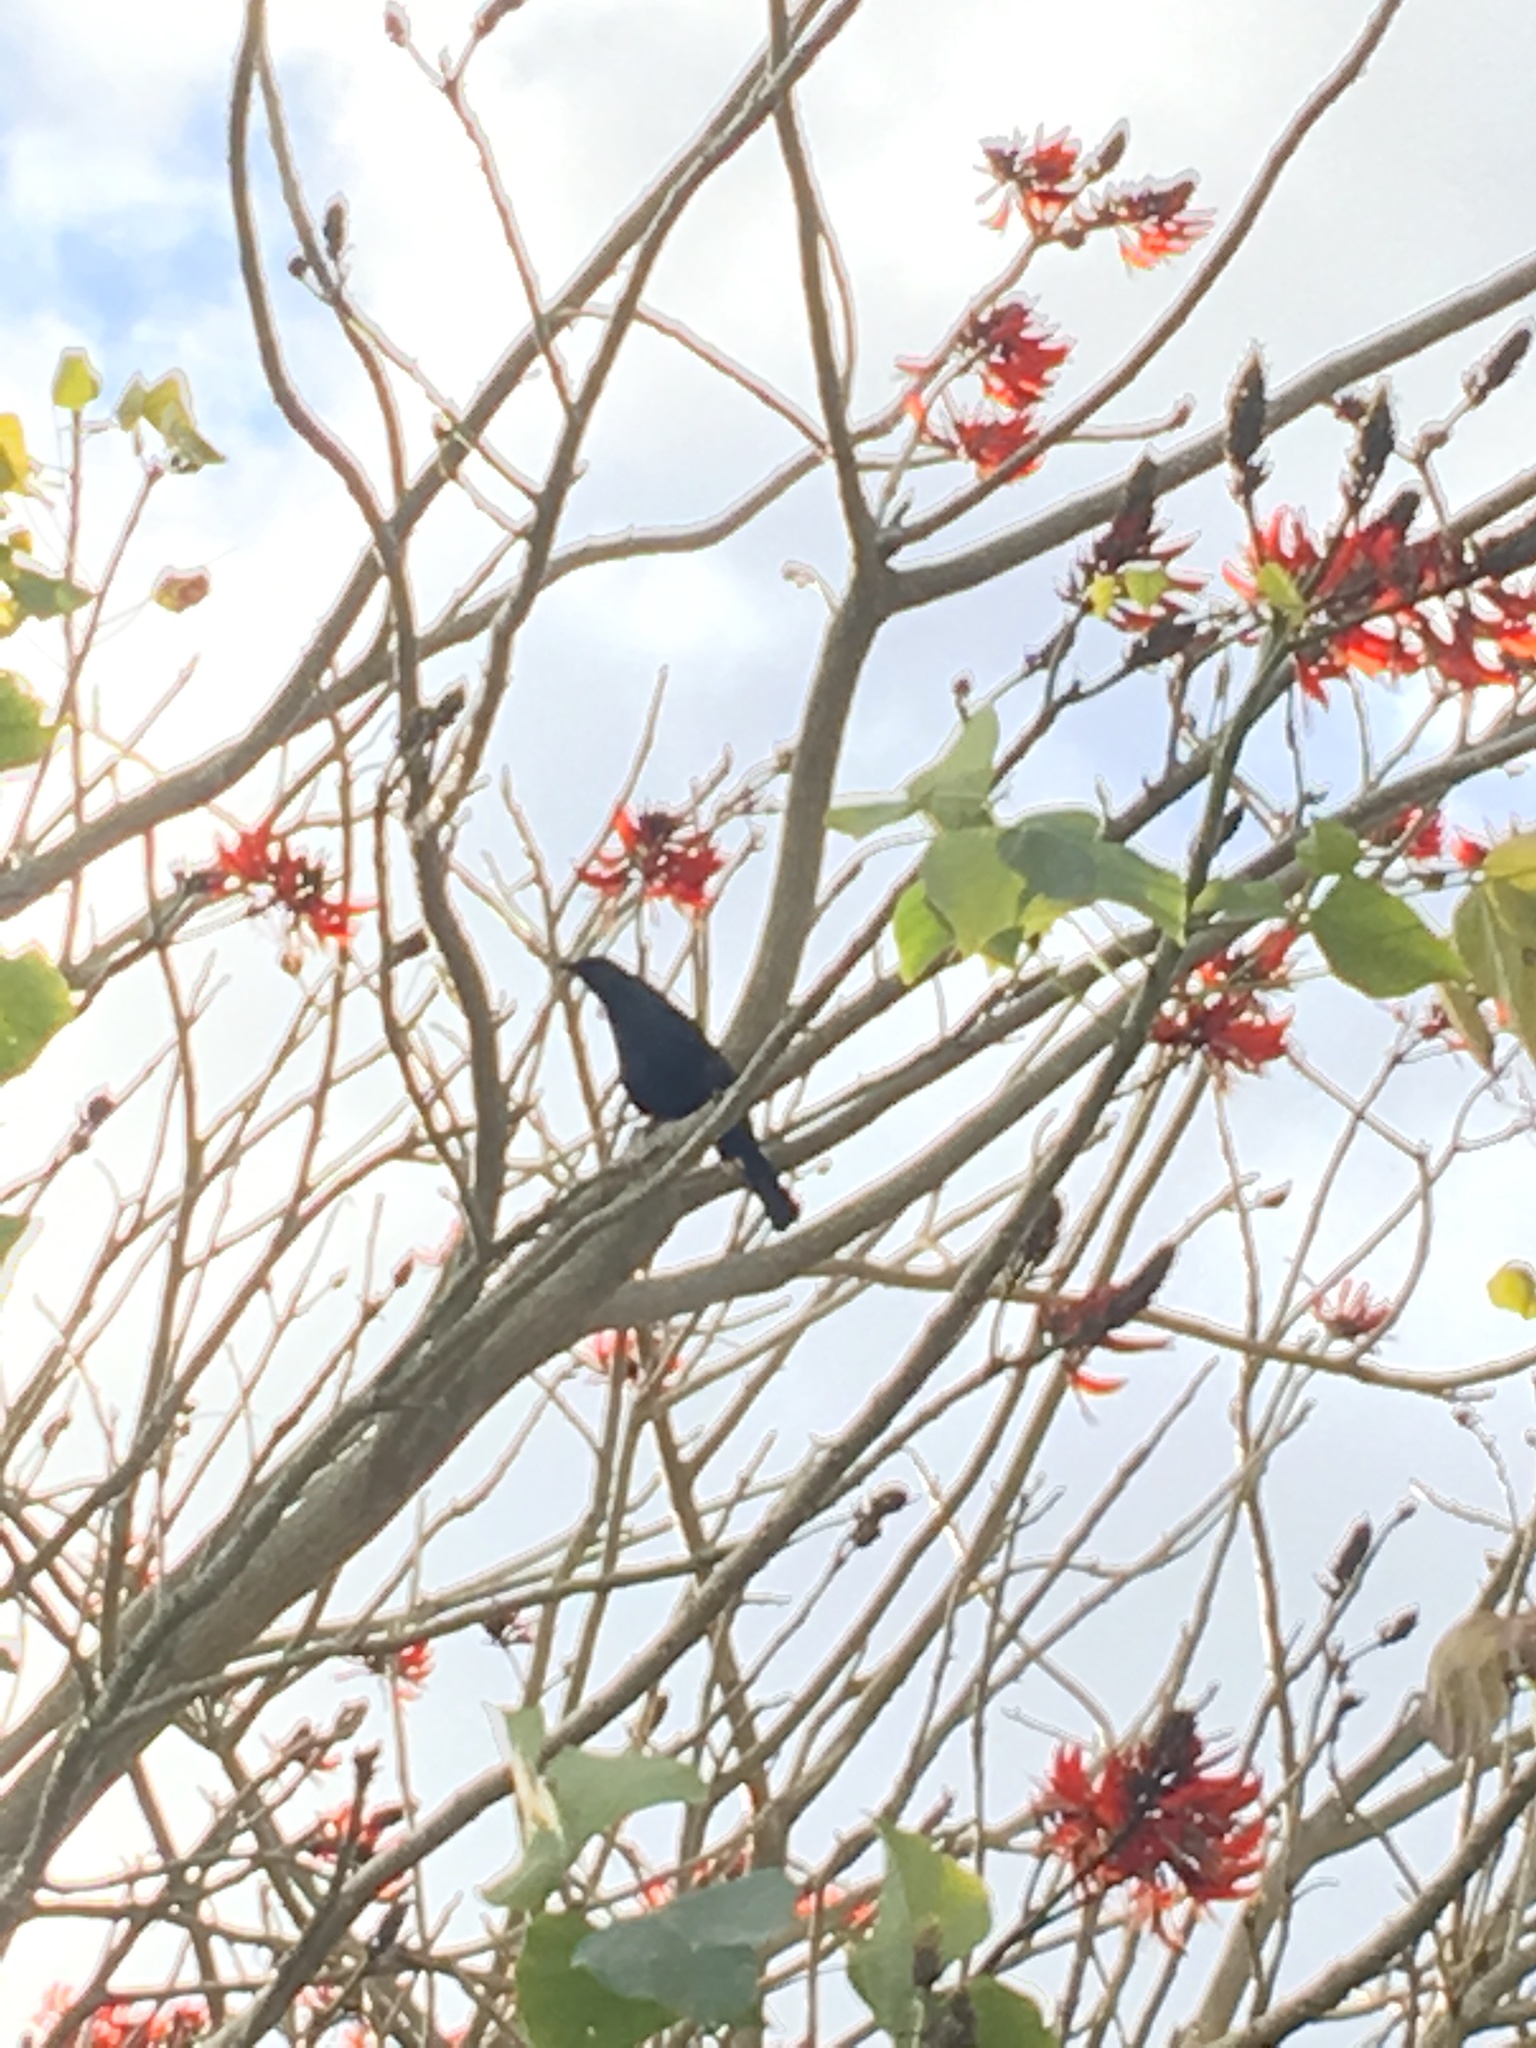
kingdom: Plantae
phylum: Tracheophyta
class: Magnoliopsida
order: Fabales
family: Fabaceae
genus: Erythrina
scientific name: Erythrina sykesii
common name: Coraltree
